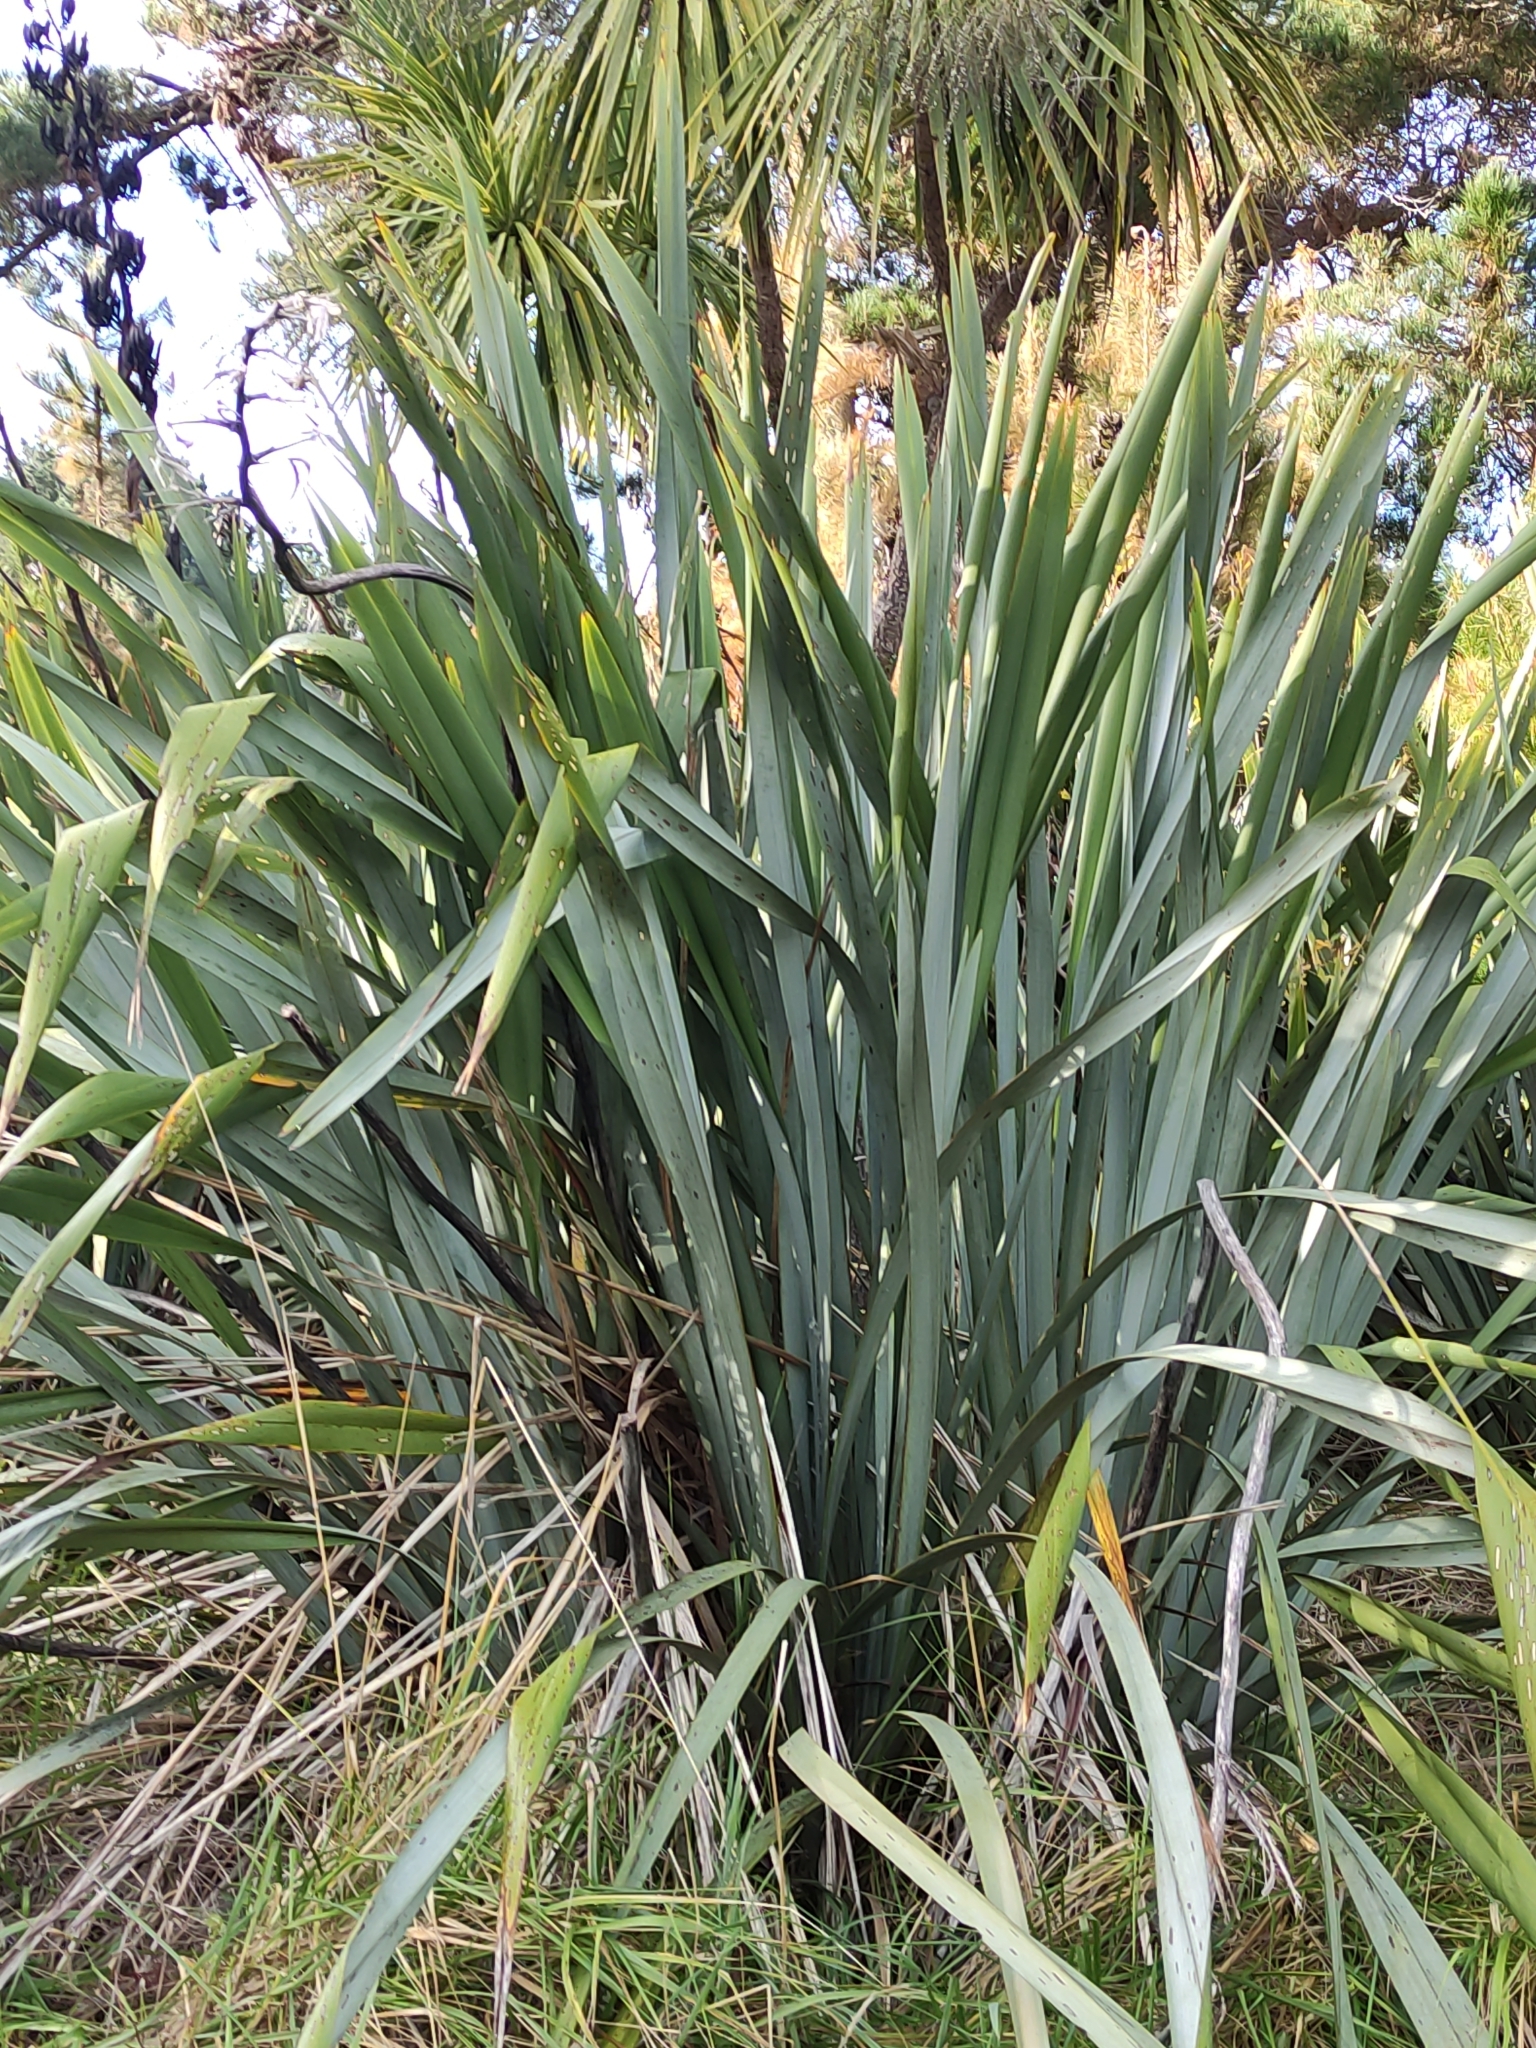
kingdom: Plantae
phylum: Tracheophyta
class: Liliopsida
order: Asparagales
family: Asphodelaceae
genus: Phormium
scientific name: Phormium tenax
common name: New zealand flax
